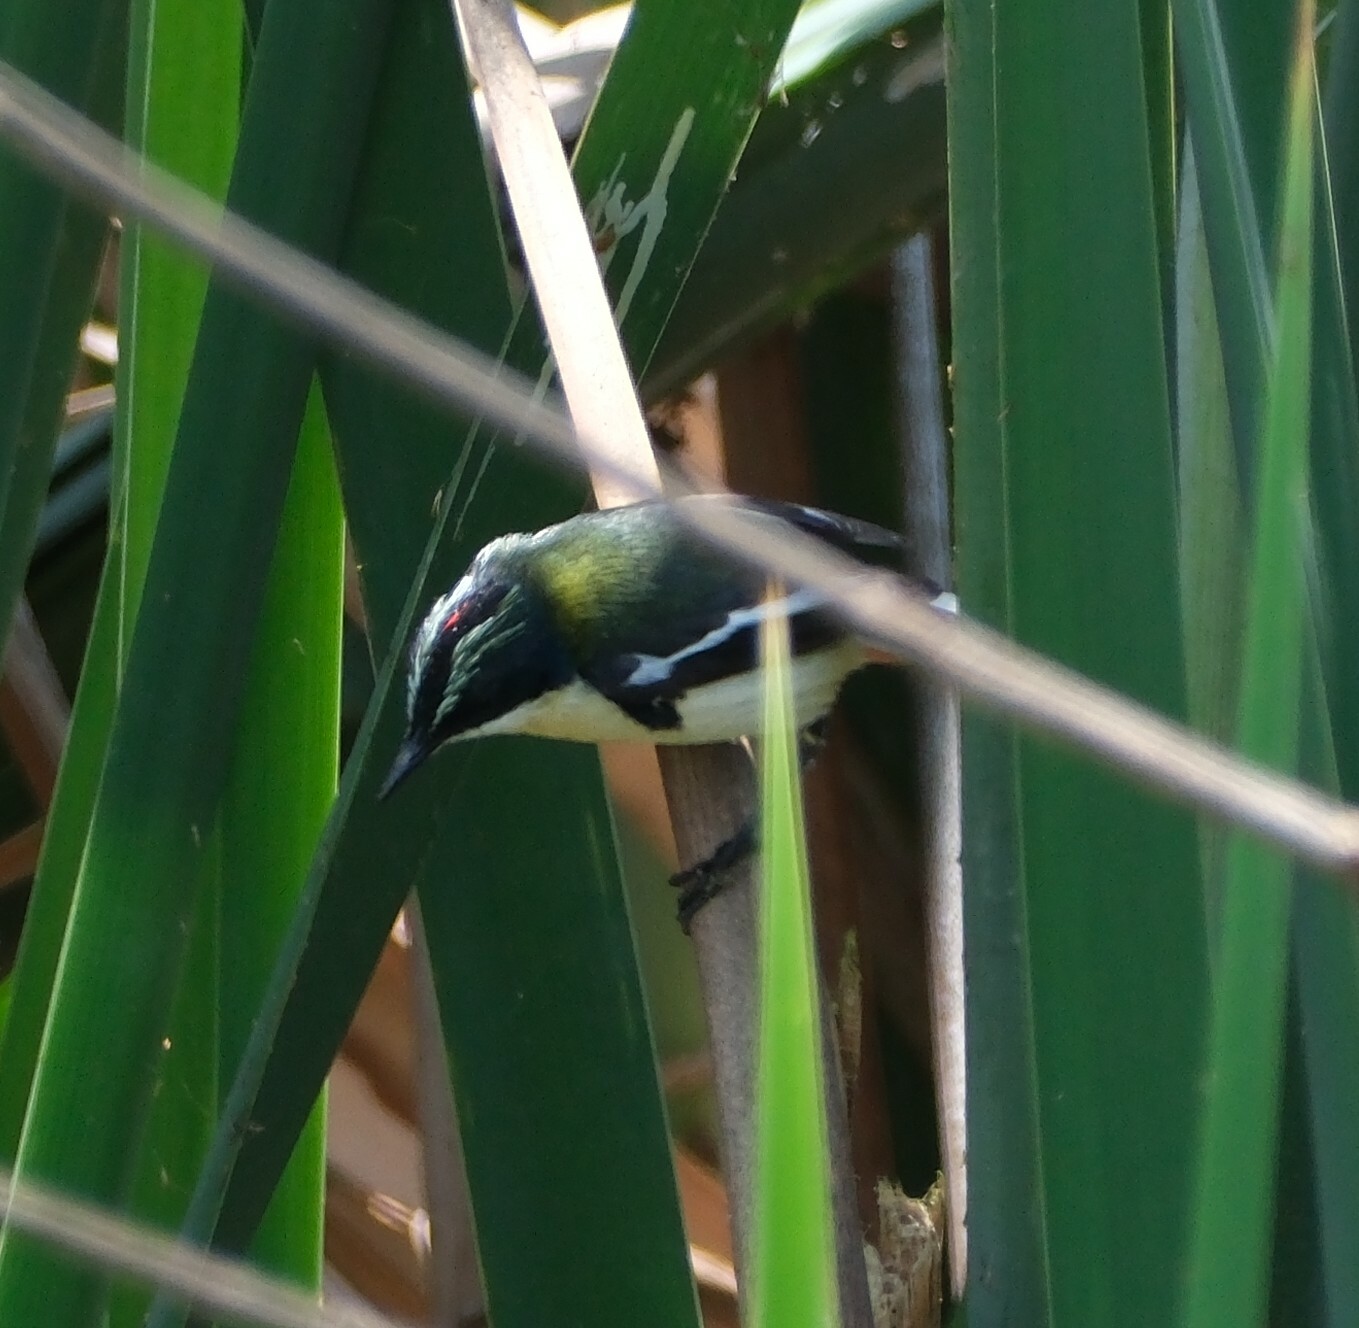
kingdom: Animalia
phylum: Chordata
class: Aves
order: Passeriformes
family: Tyrannidae
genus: Tachuris
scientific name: Tachuris rubrigastra
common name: Many-colored rush tyrant
